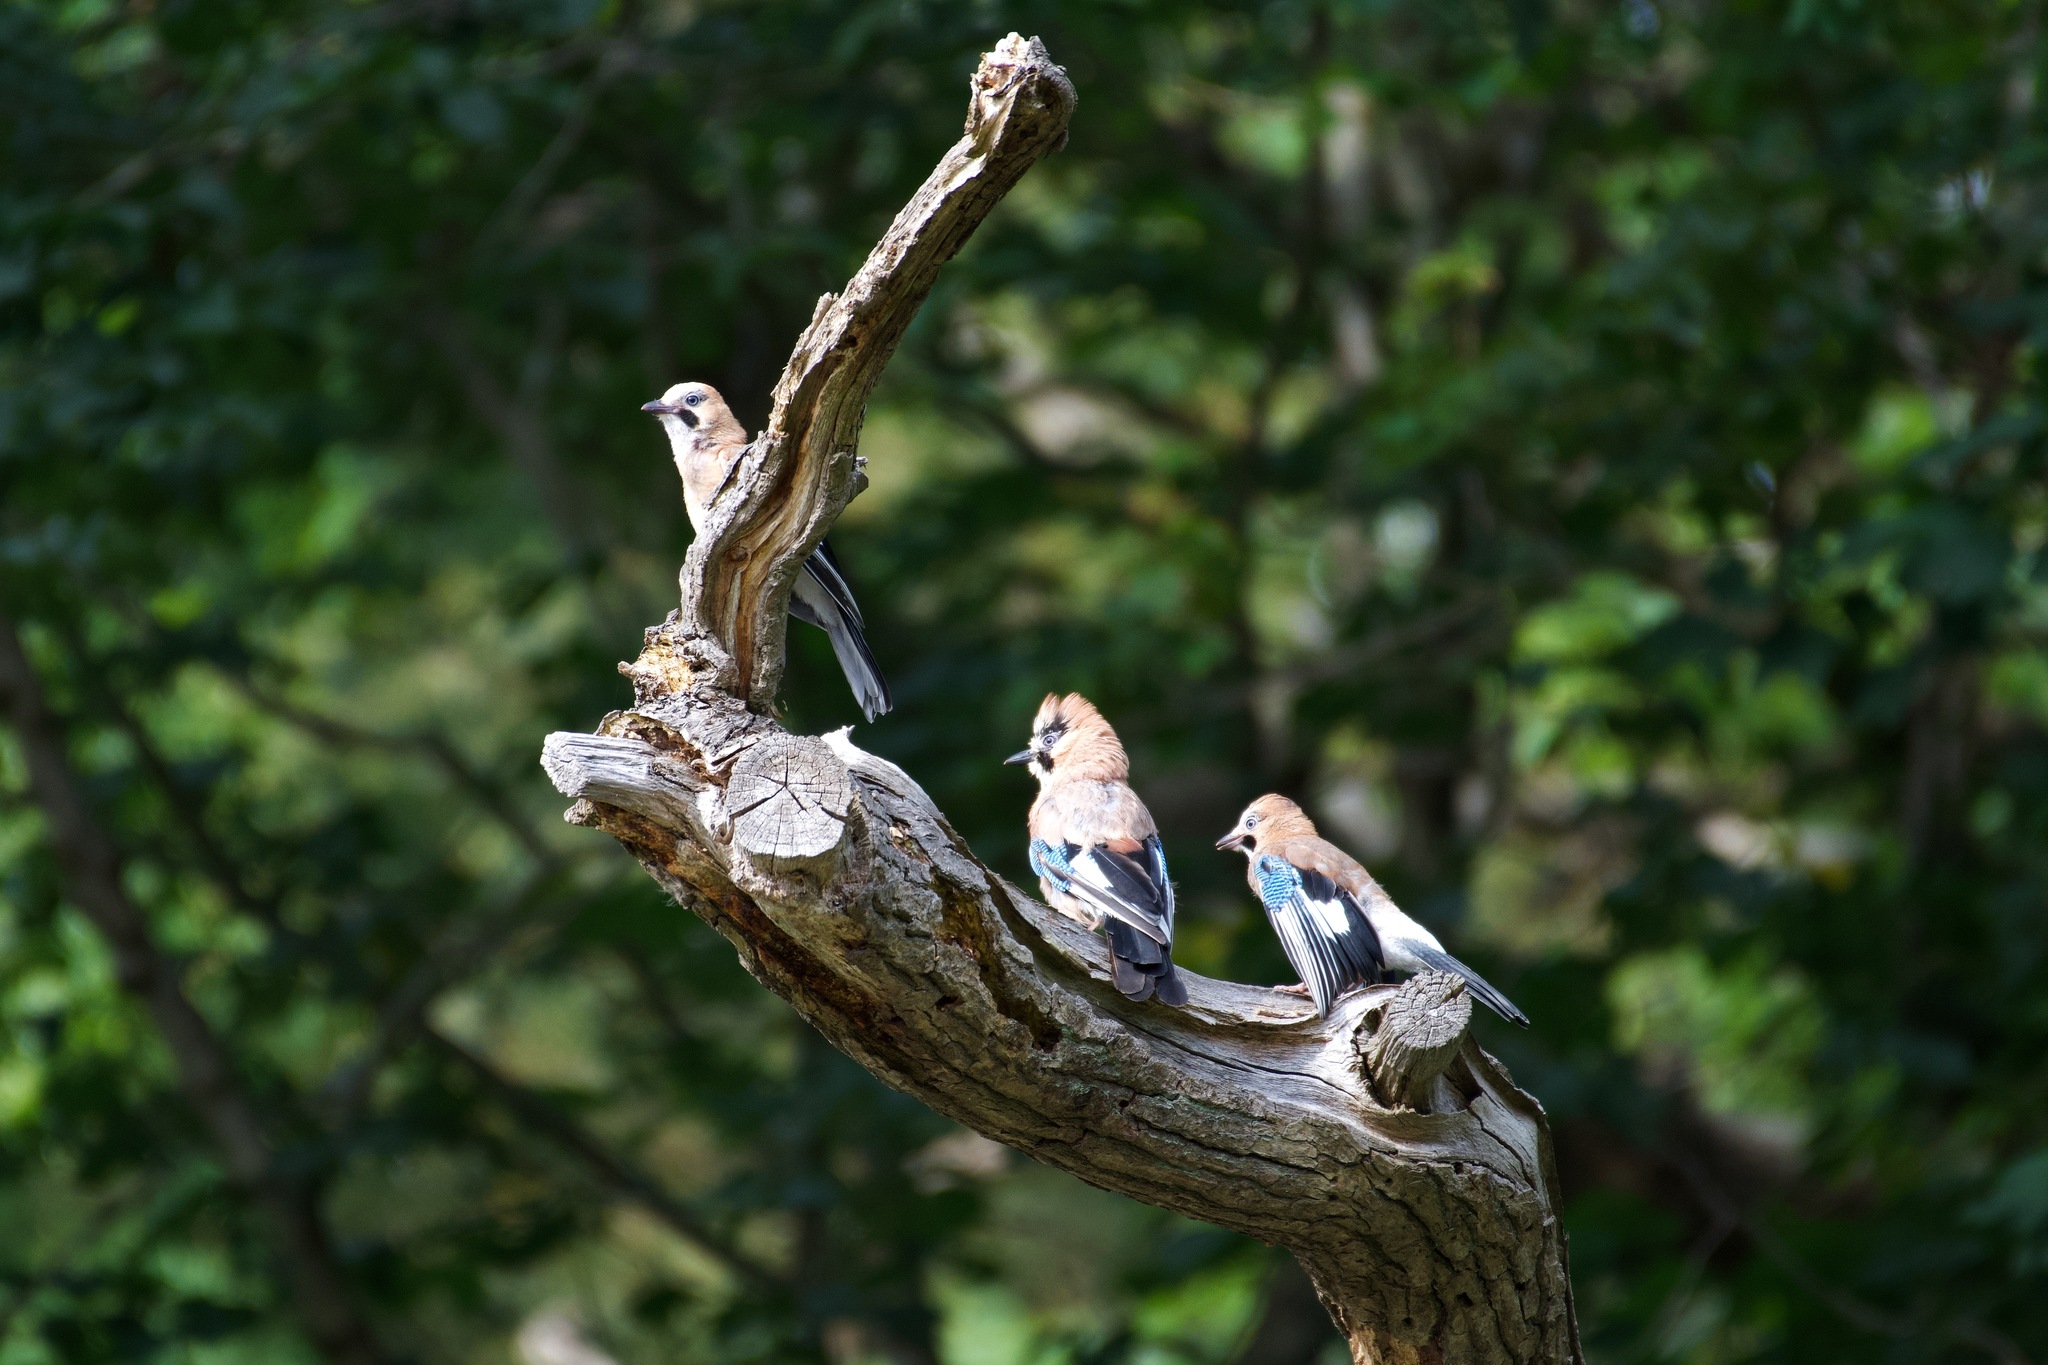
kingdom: Animalia
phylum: Chordata
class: Aves
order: Passeriformes
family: Corvidae
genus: Garrulus
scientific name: Garrulus glandarius
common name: Eurasian jay
